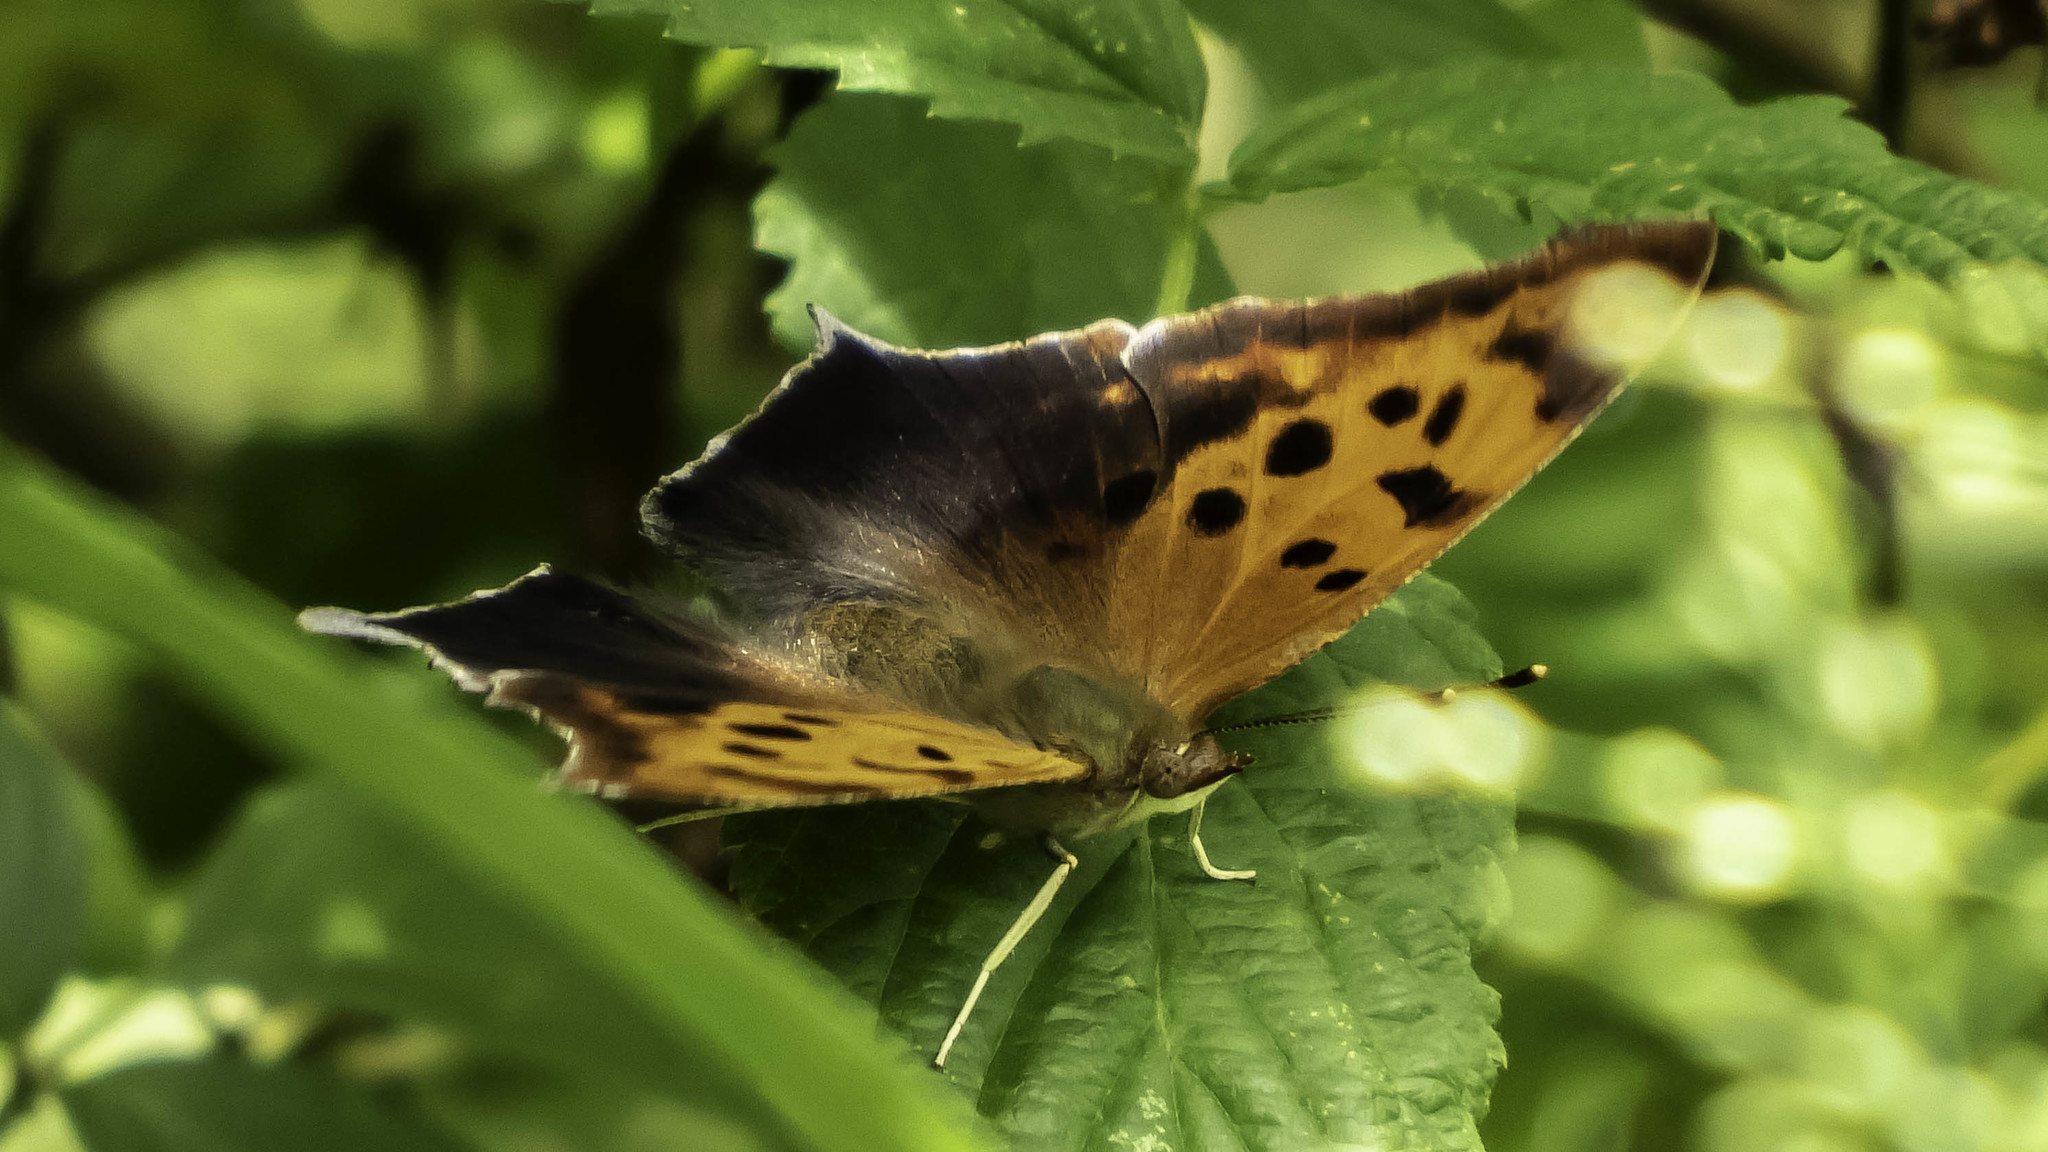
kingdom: Animalia
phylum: Arthropoda
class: Insecta
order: Lepidoptera
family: Nymphalidae
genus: Polygonia
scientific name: Polygonia interrogationis
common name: Question mark
